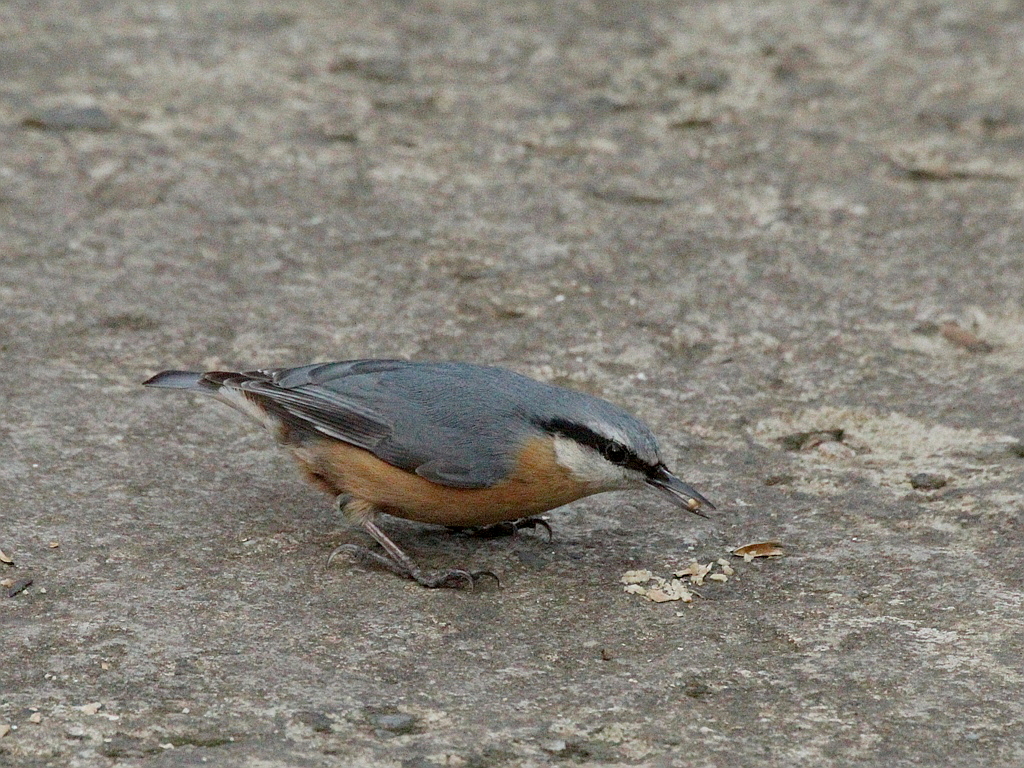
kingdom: Animalia
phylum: Chordata
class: Aves
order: Passeriformes
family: Sittidae
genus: Sitta
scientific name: Sitta europaea
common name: Eurasian nuthatch
